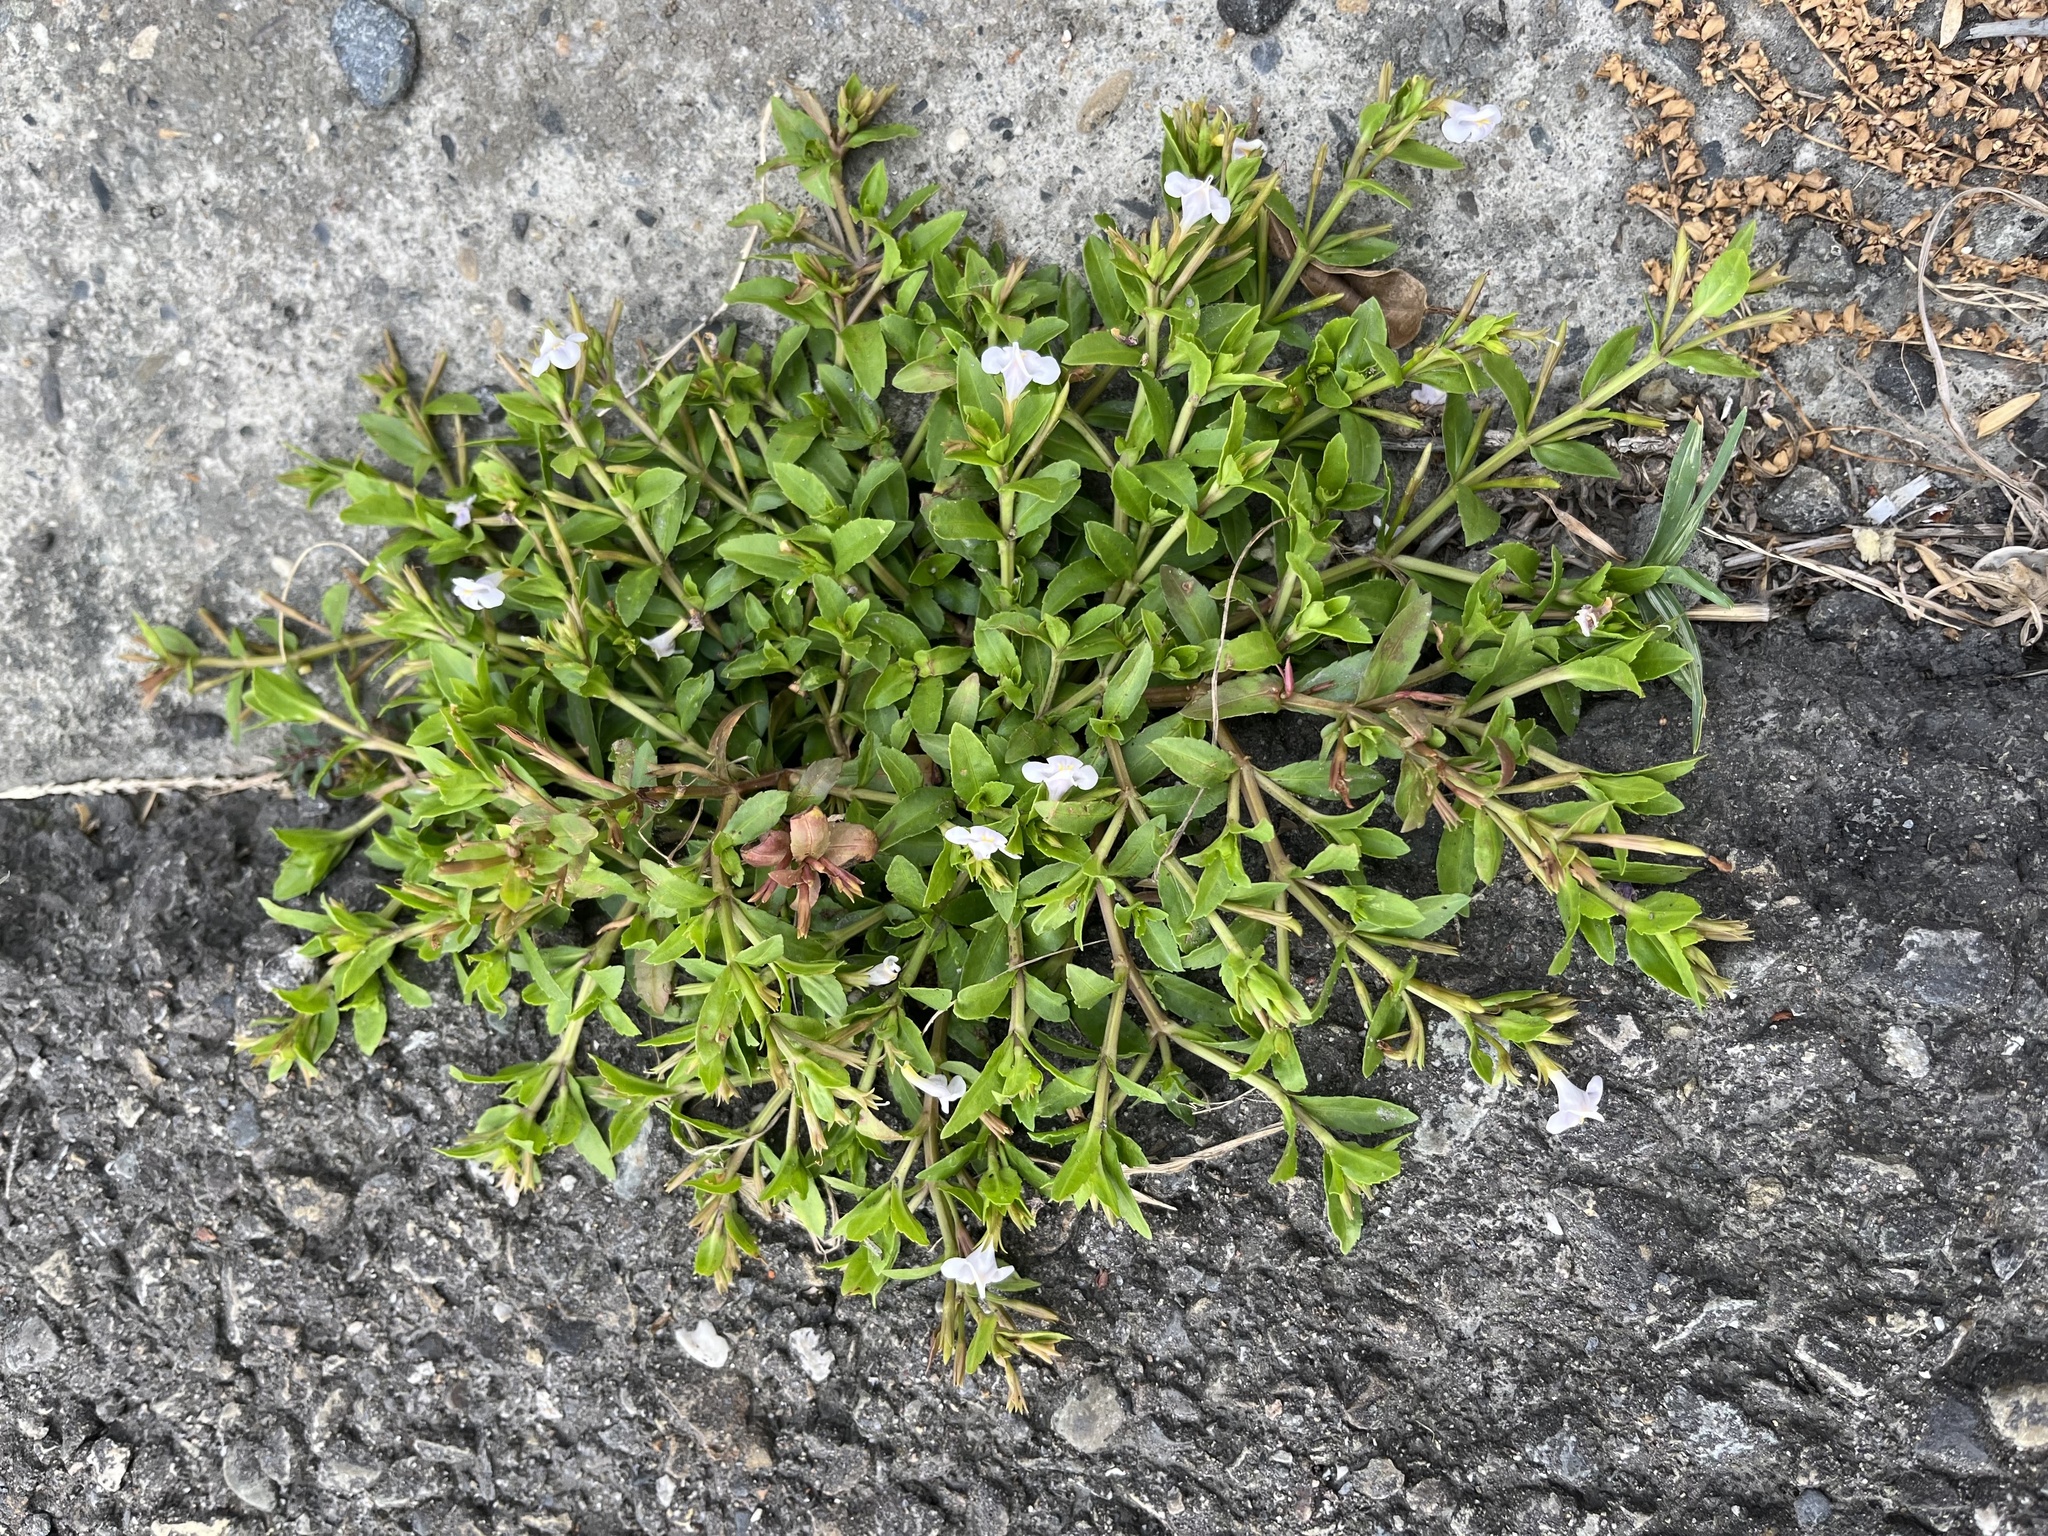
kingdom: Plantae
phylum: Tracheophyta
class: Magnoliopsida
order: Lamiales
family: Linderniaceae
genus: Bonnaya
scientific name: Bonnaya antipoda
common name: Sparrow false pimpernel
